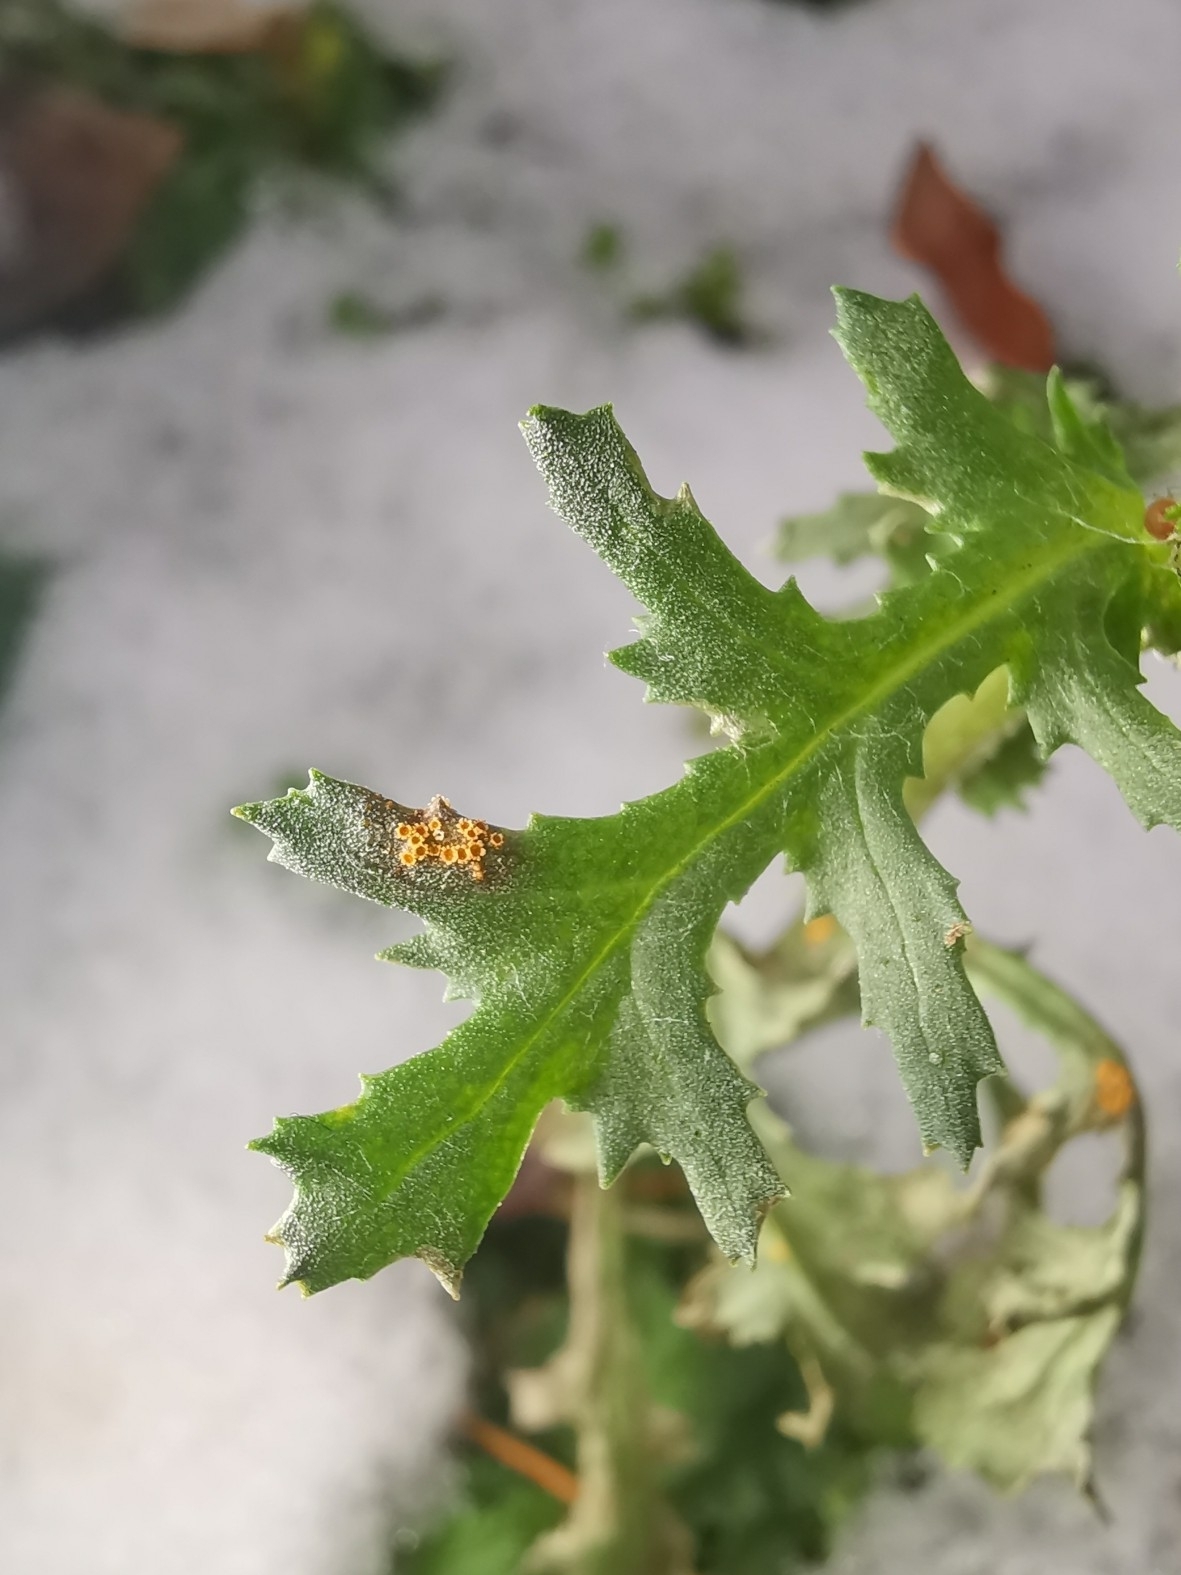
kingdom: Fungi
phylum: Basidiomycota
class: Pucciniomycetes
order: Pucciniales
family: Pucciniaceae
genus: Puccinia
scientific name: Puccinia lagenophorae
